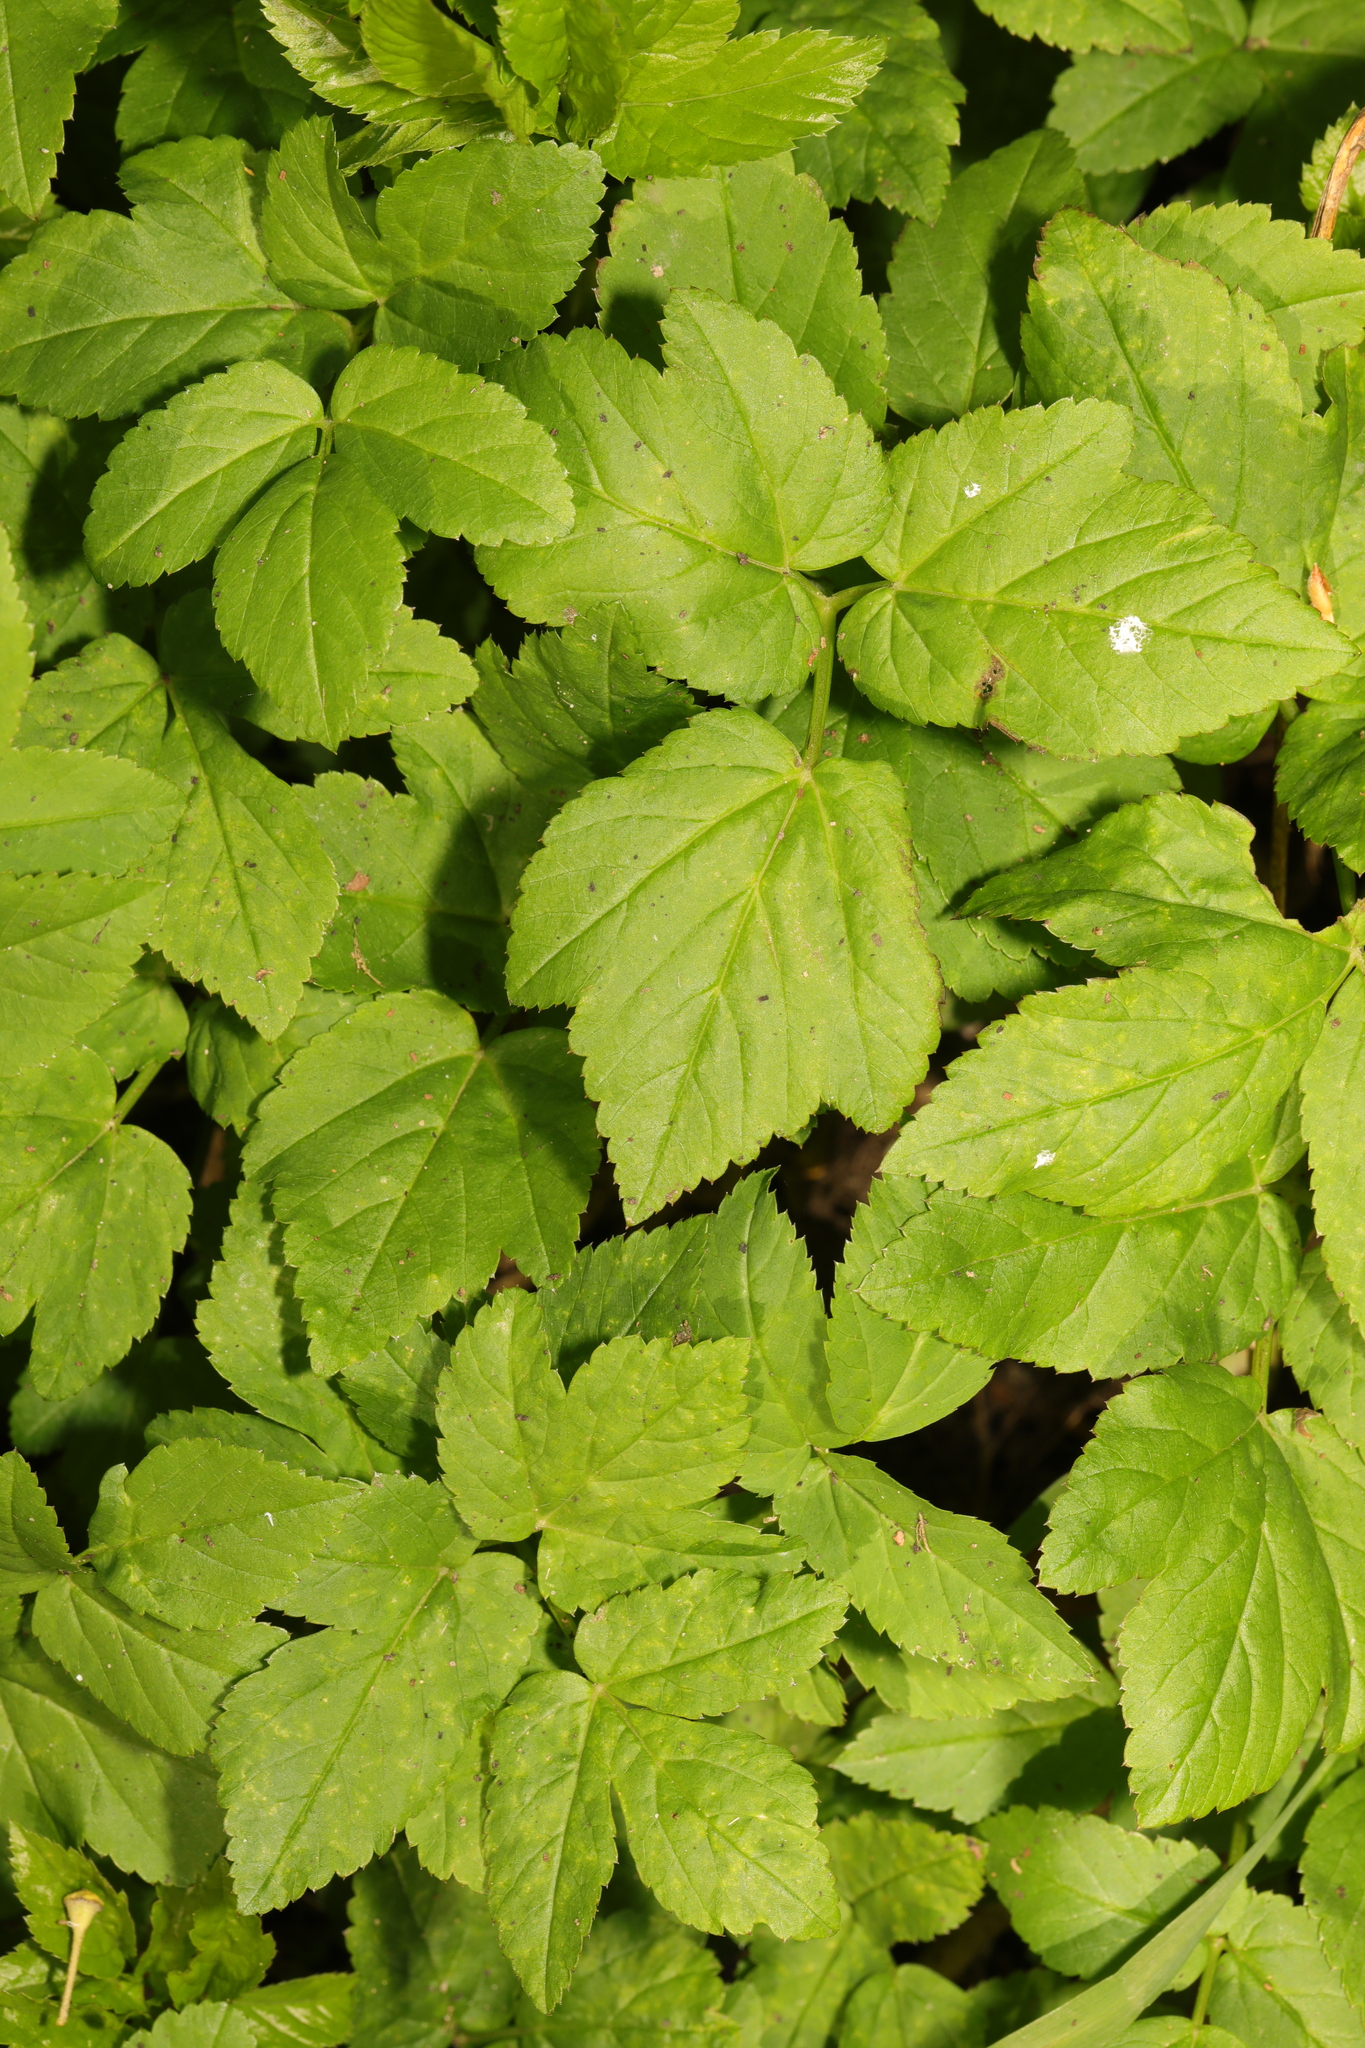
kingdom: Plantae
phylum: Tracheophyta
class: Magnoliopsida
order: Apiales
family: Apiaceae
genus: Aegopodium
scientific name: Aegopodium podagraria
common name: Ground-elder
